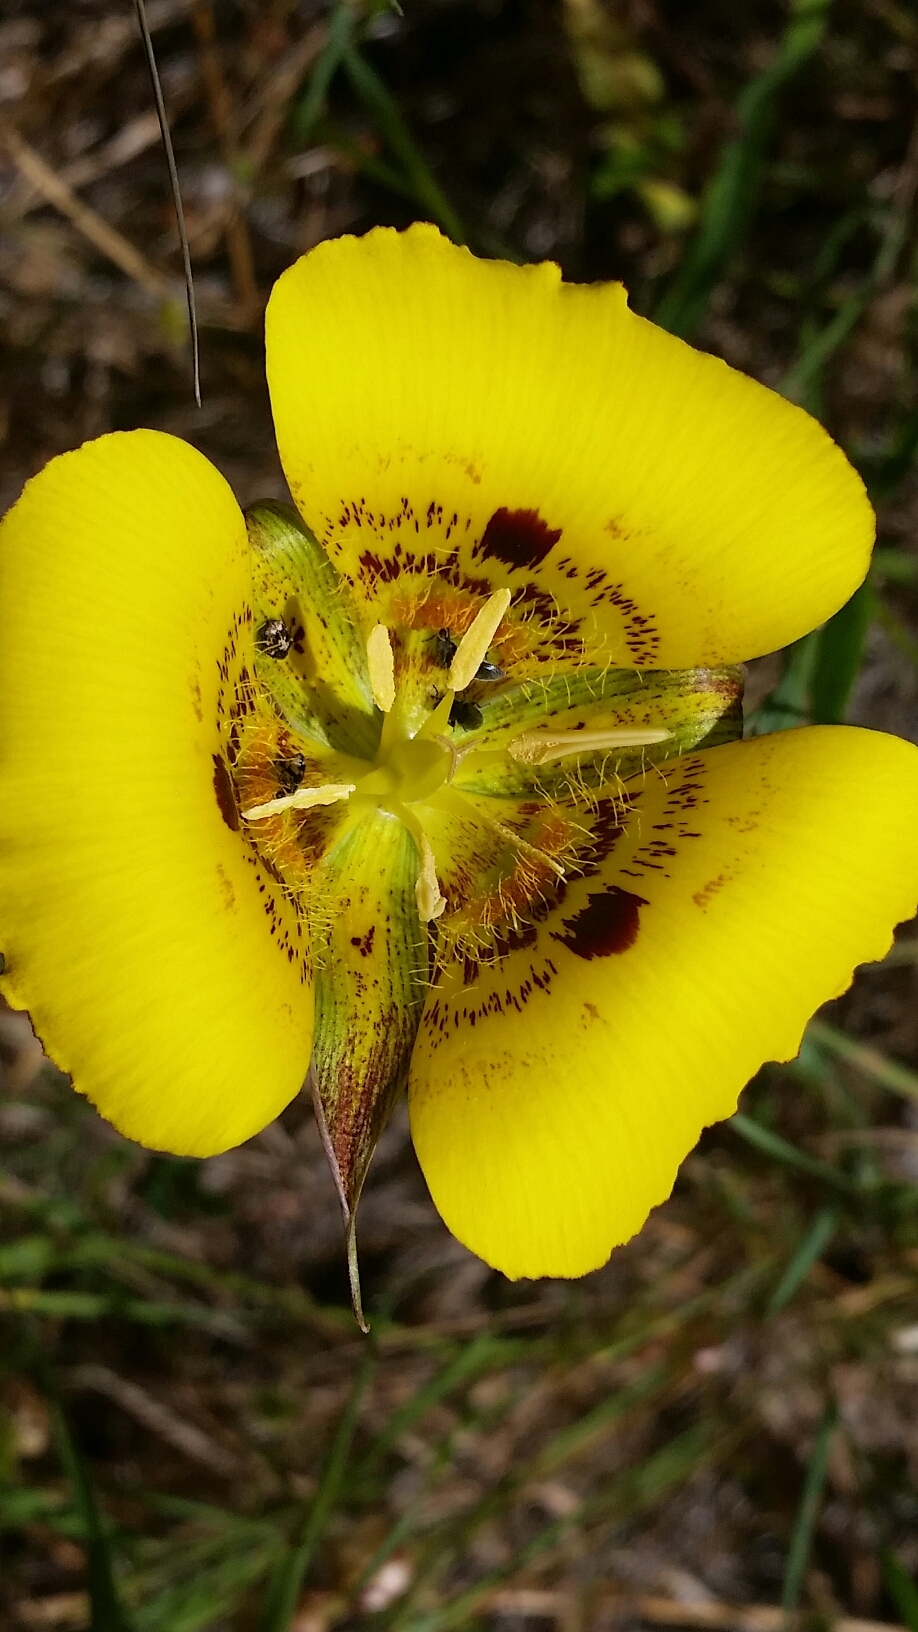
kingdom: Plantae
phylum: Tracheophyta
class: Liliopsida
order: Liliales
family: Liliaceae
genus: Calochortus
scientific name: Calochortus luteus
